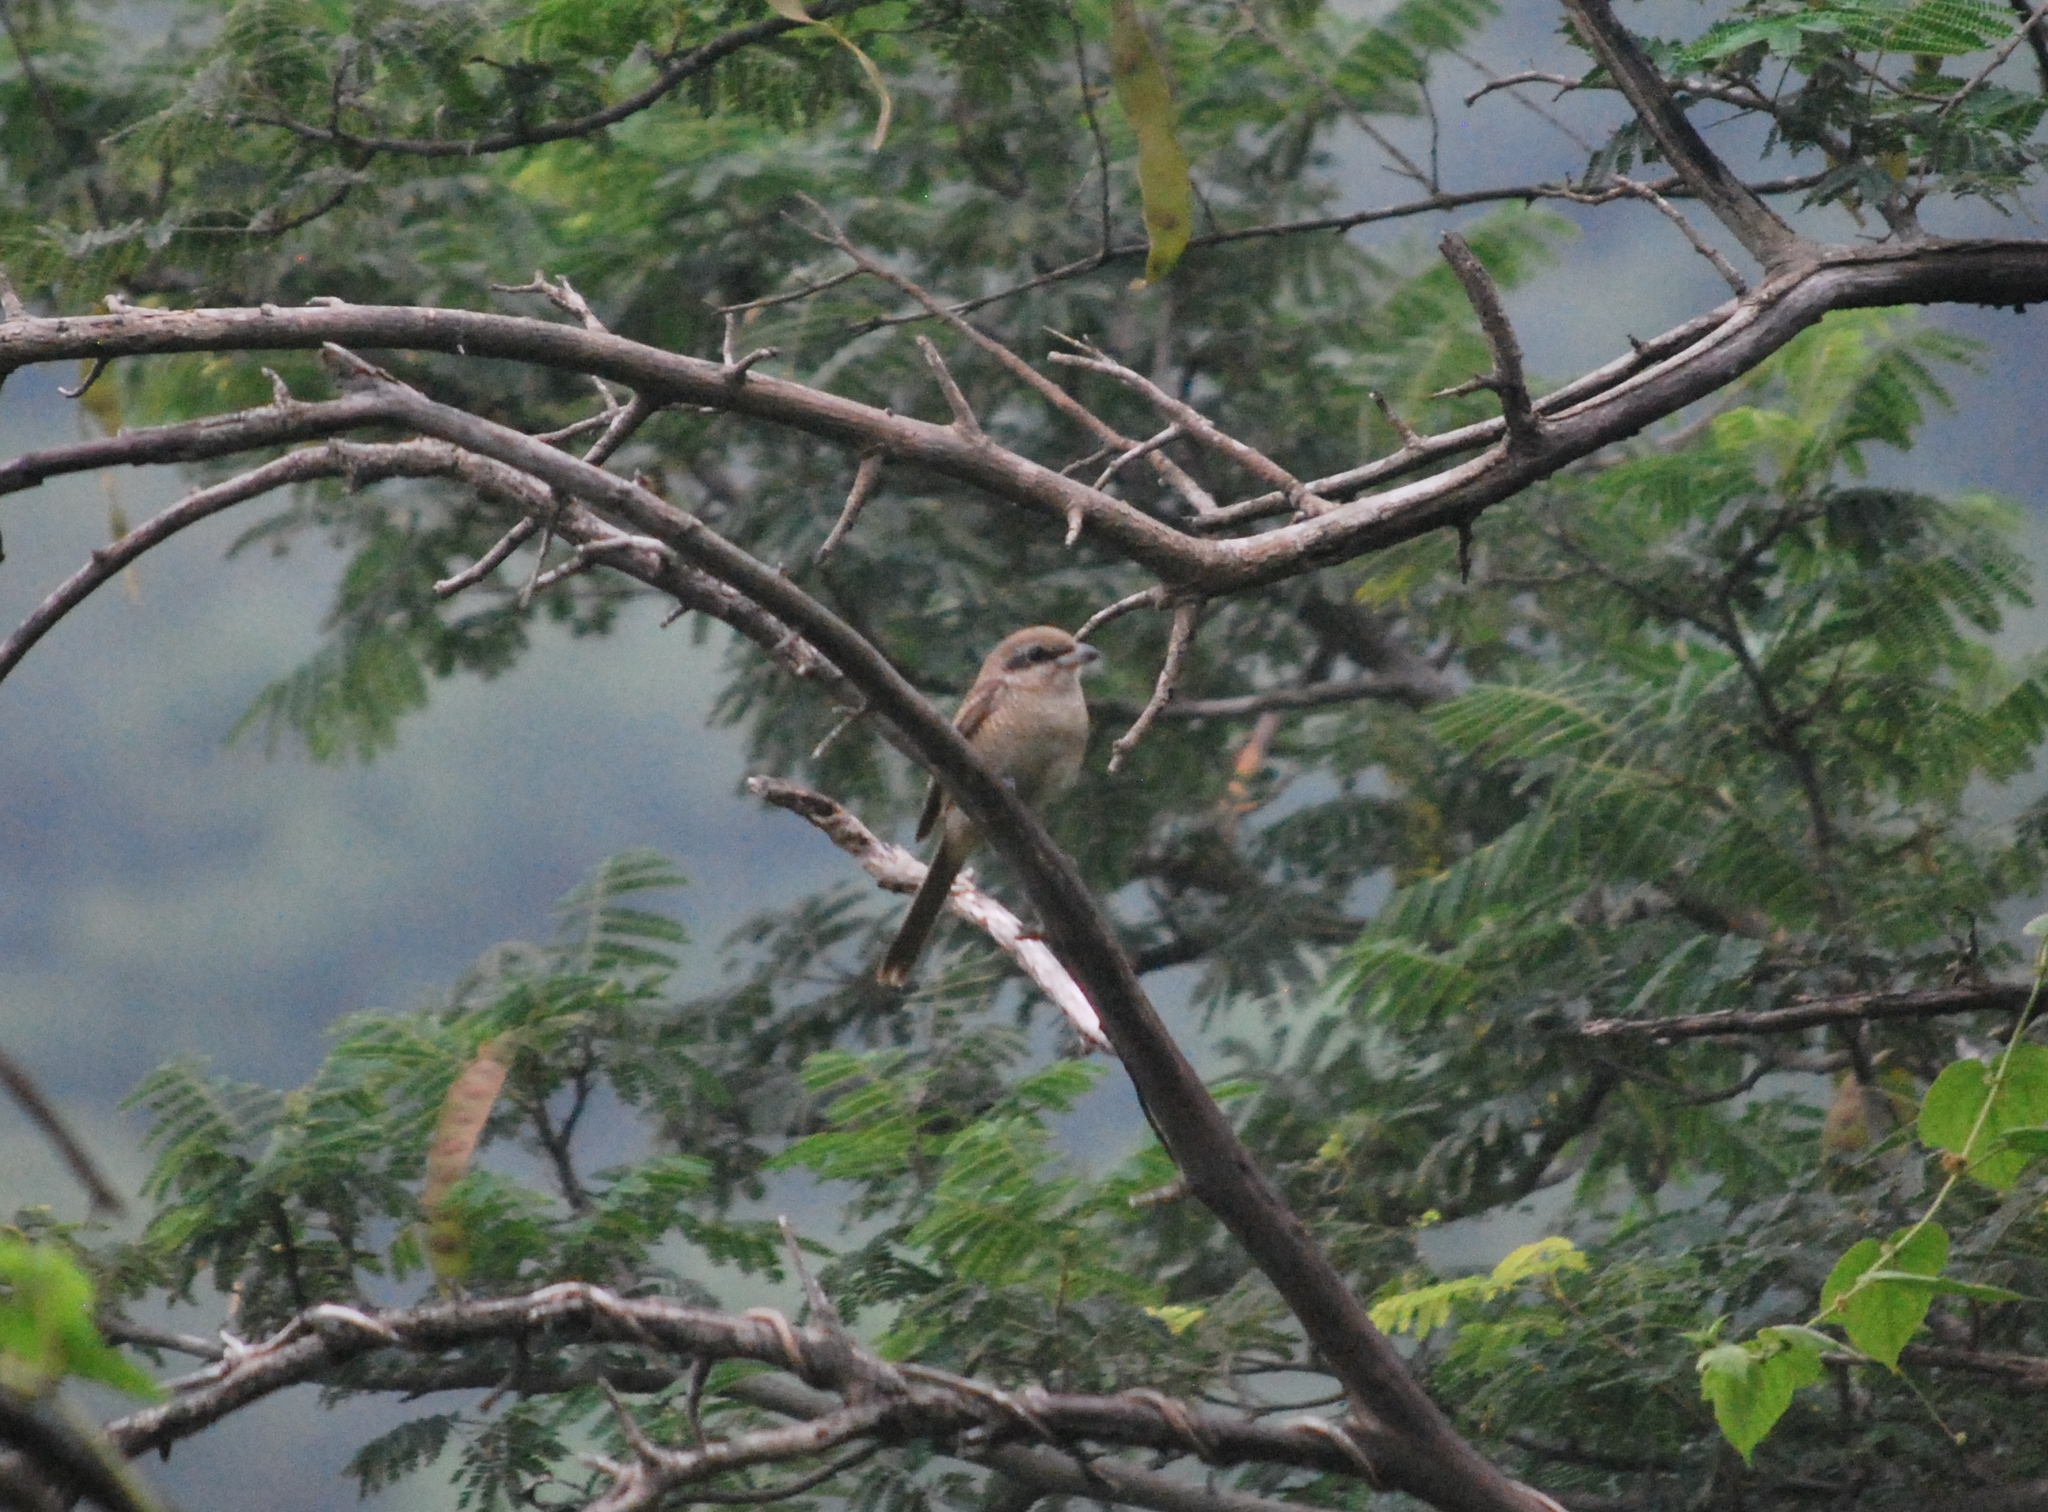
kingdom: Animalia
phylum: Chordata
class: Aves
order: Passeriformes
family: Laniidae
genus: Lanius
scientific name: Lanius cristatus
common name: Brown shrike
